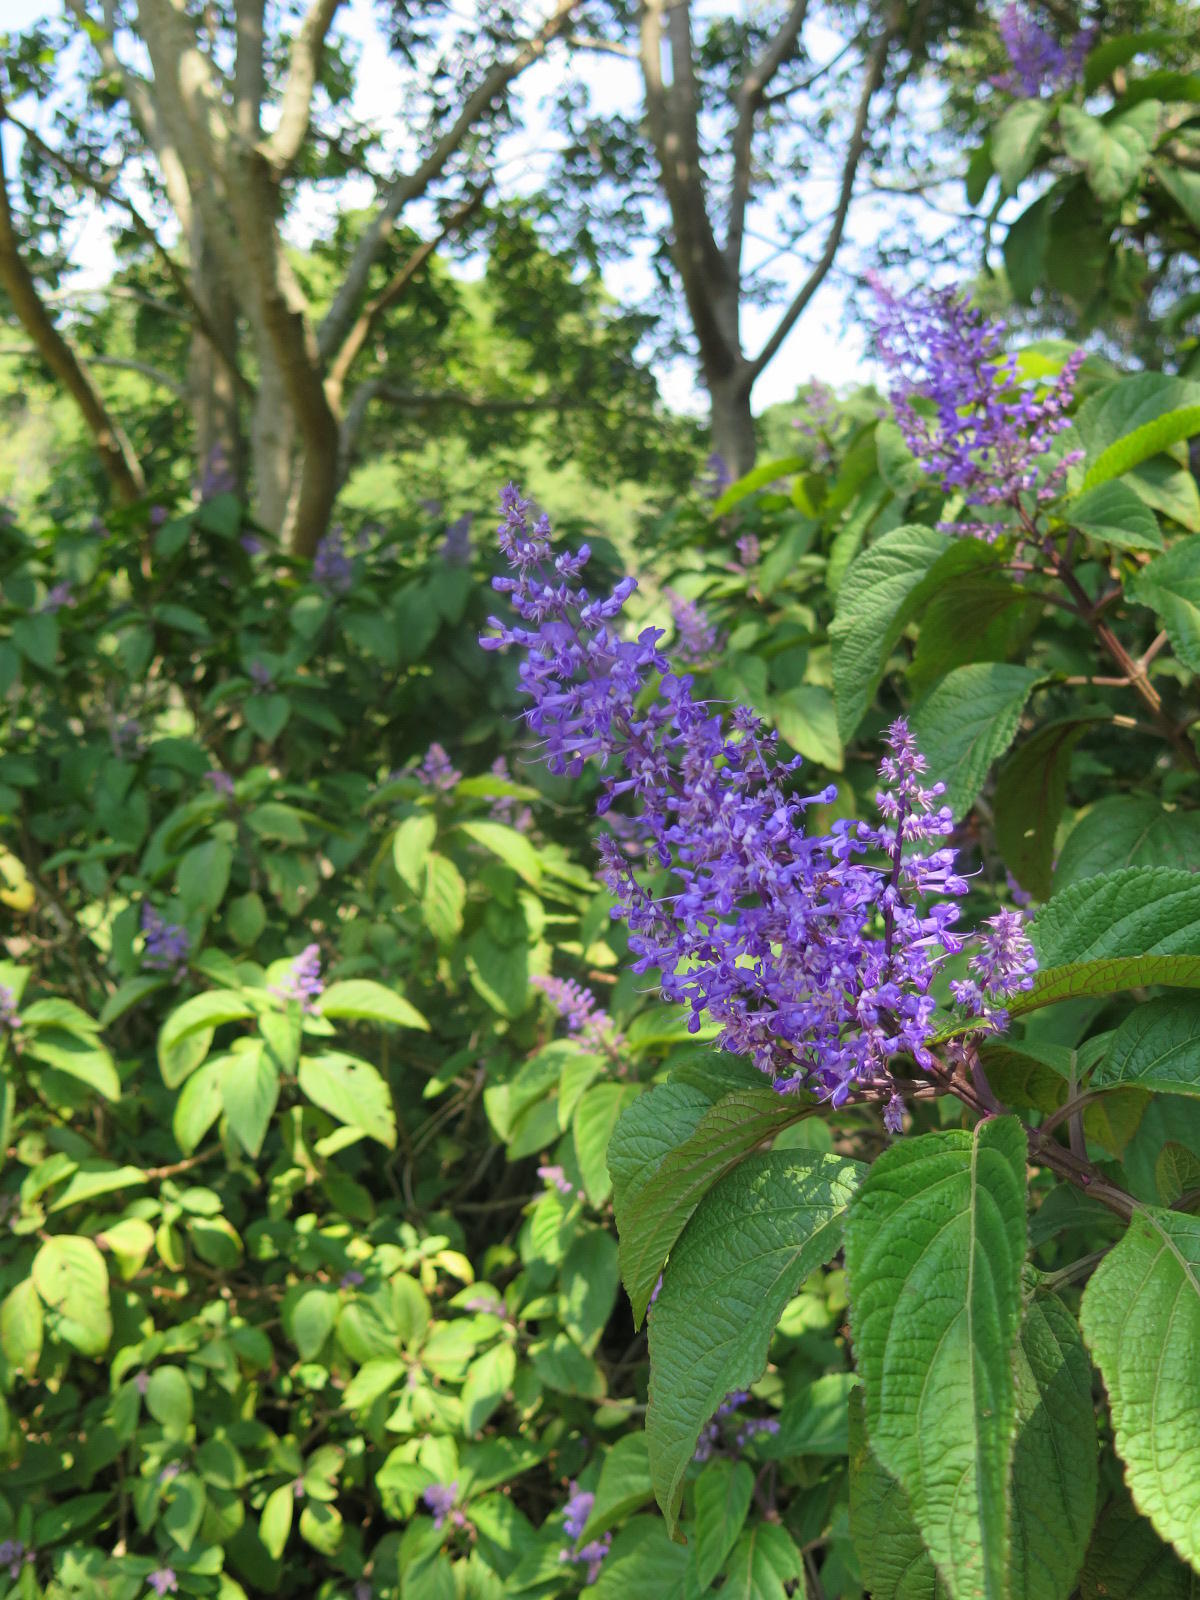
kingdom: Plantae
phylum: Tracheophyta
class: Magnoliopsida
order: Lamiales
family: Lamiaceae
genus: Plectranthus
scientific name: Plectranthus ecklonii
